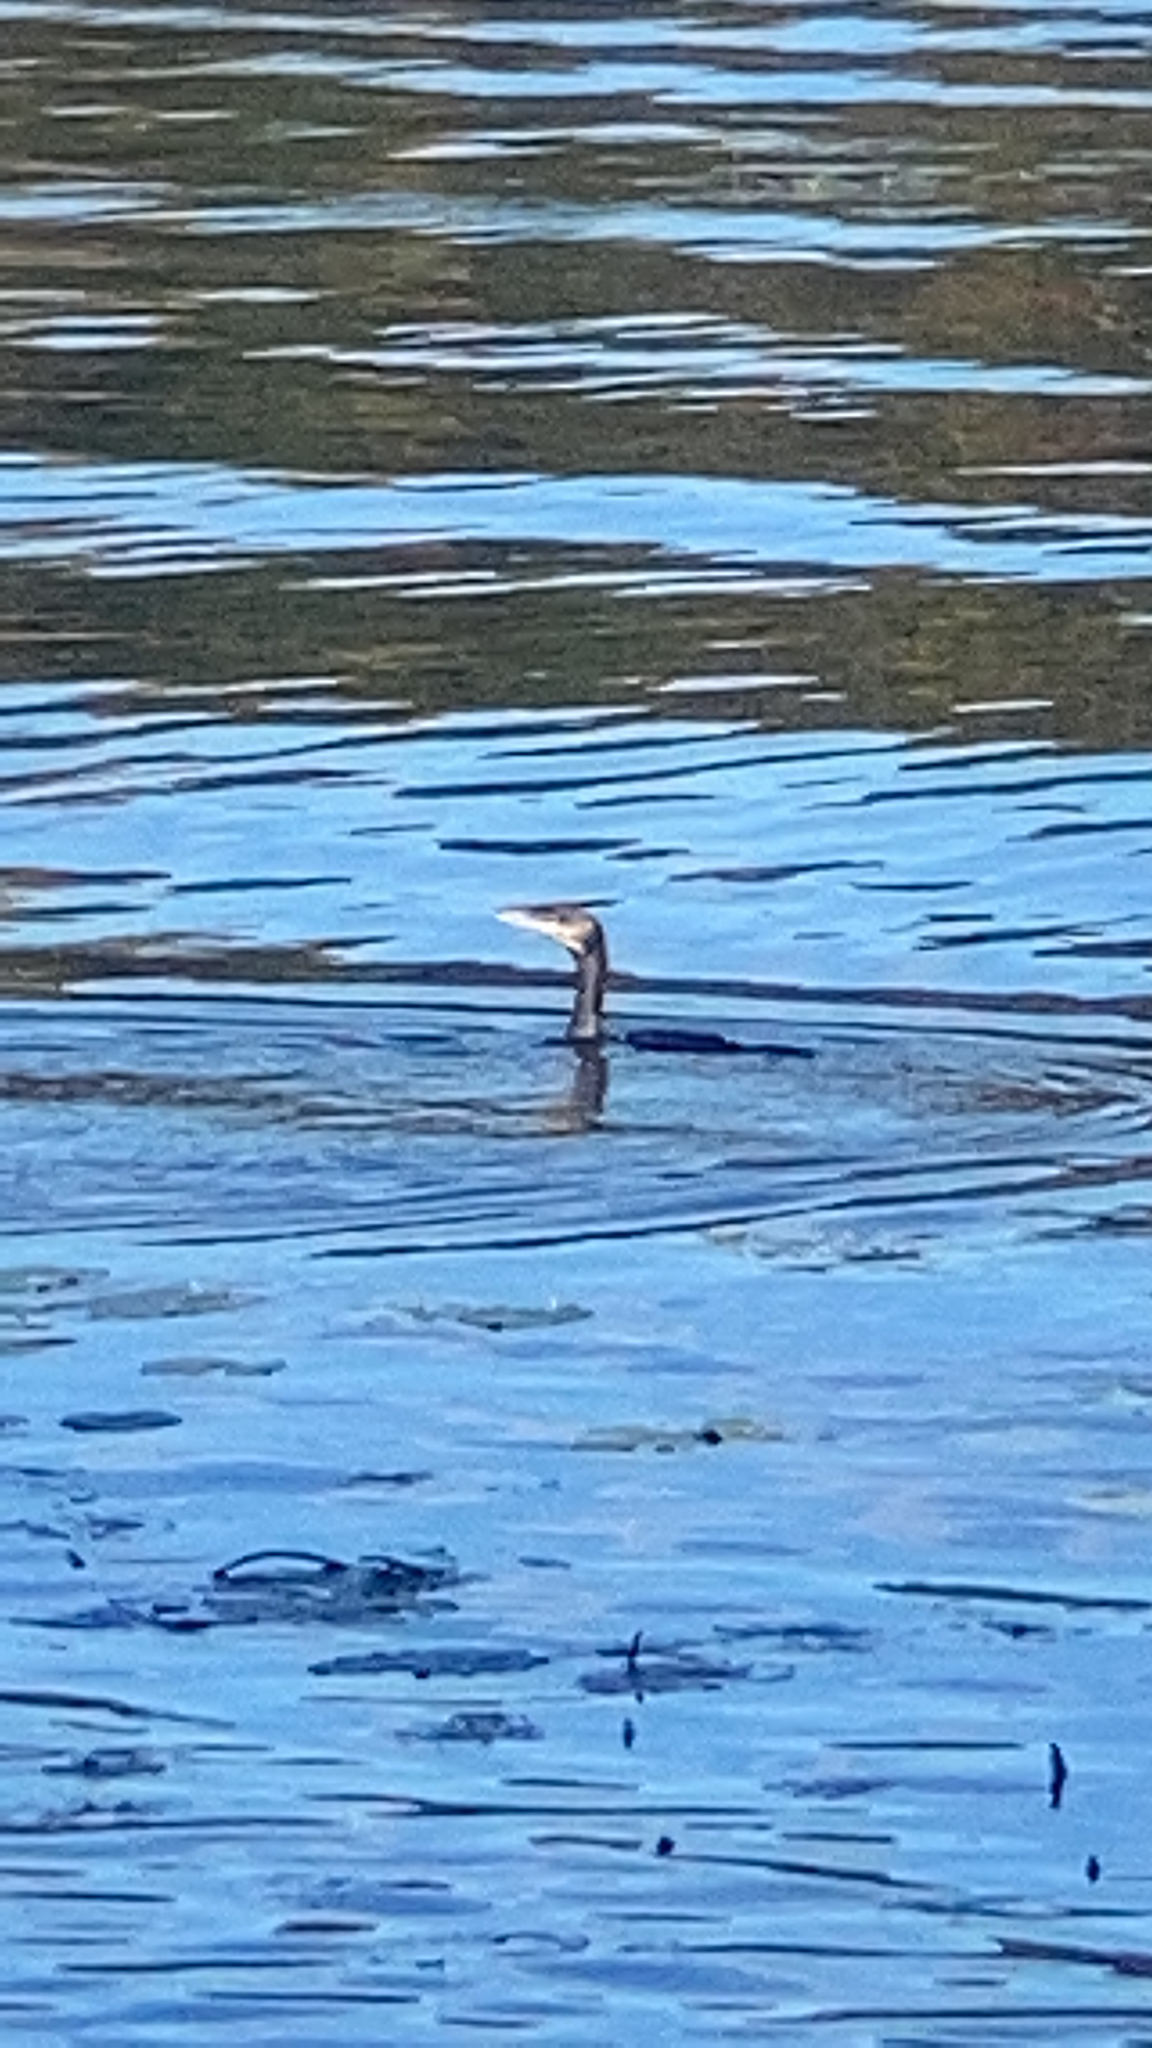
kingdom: Animalia
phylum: Chordata
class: Aves
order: Suliformes
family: Phalacrocoracidae
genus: Phalacrocorax
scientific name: Phalacrocorax carbo
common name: Great cormorant
